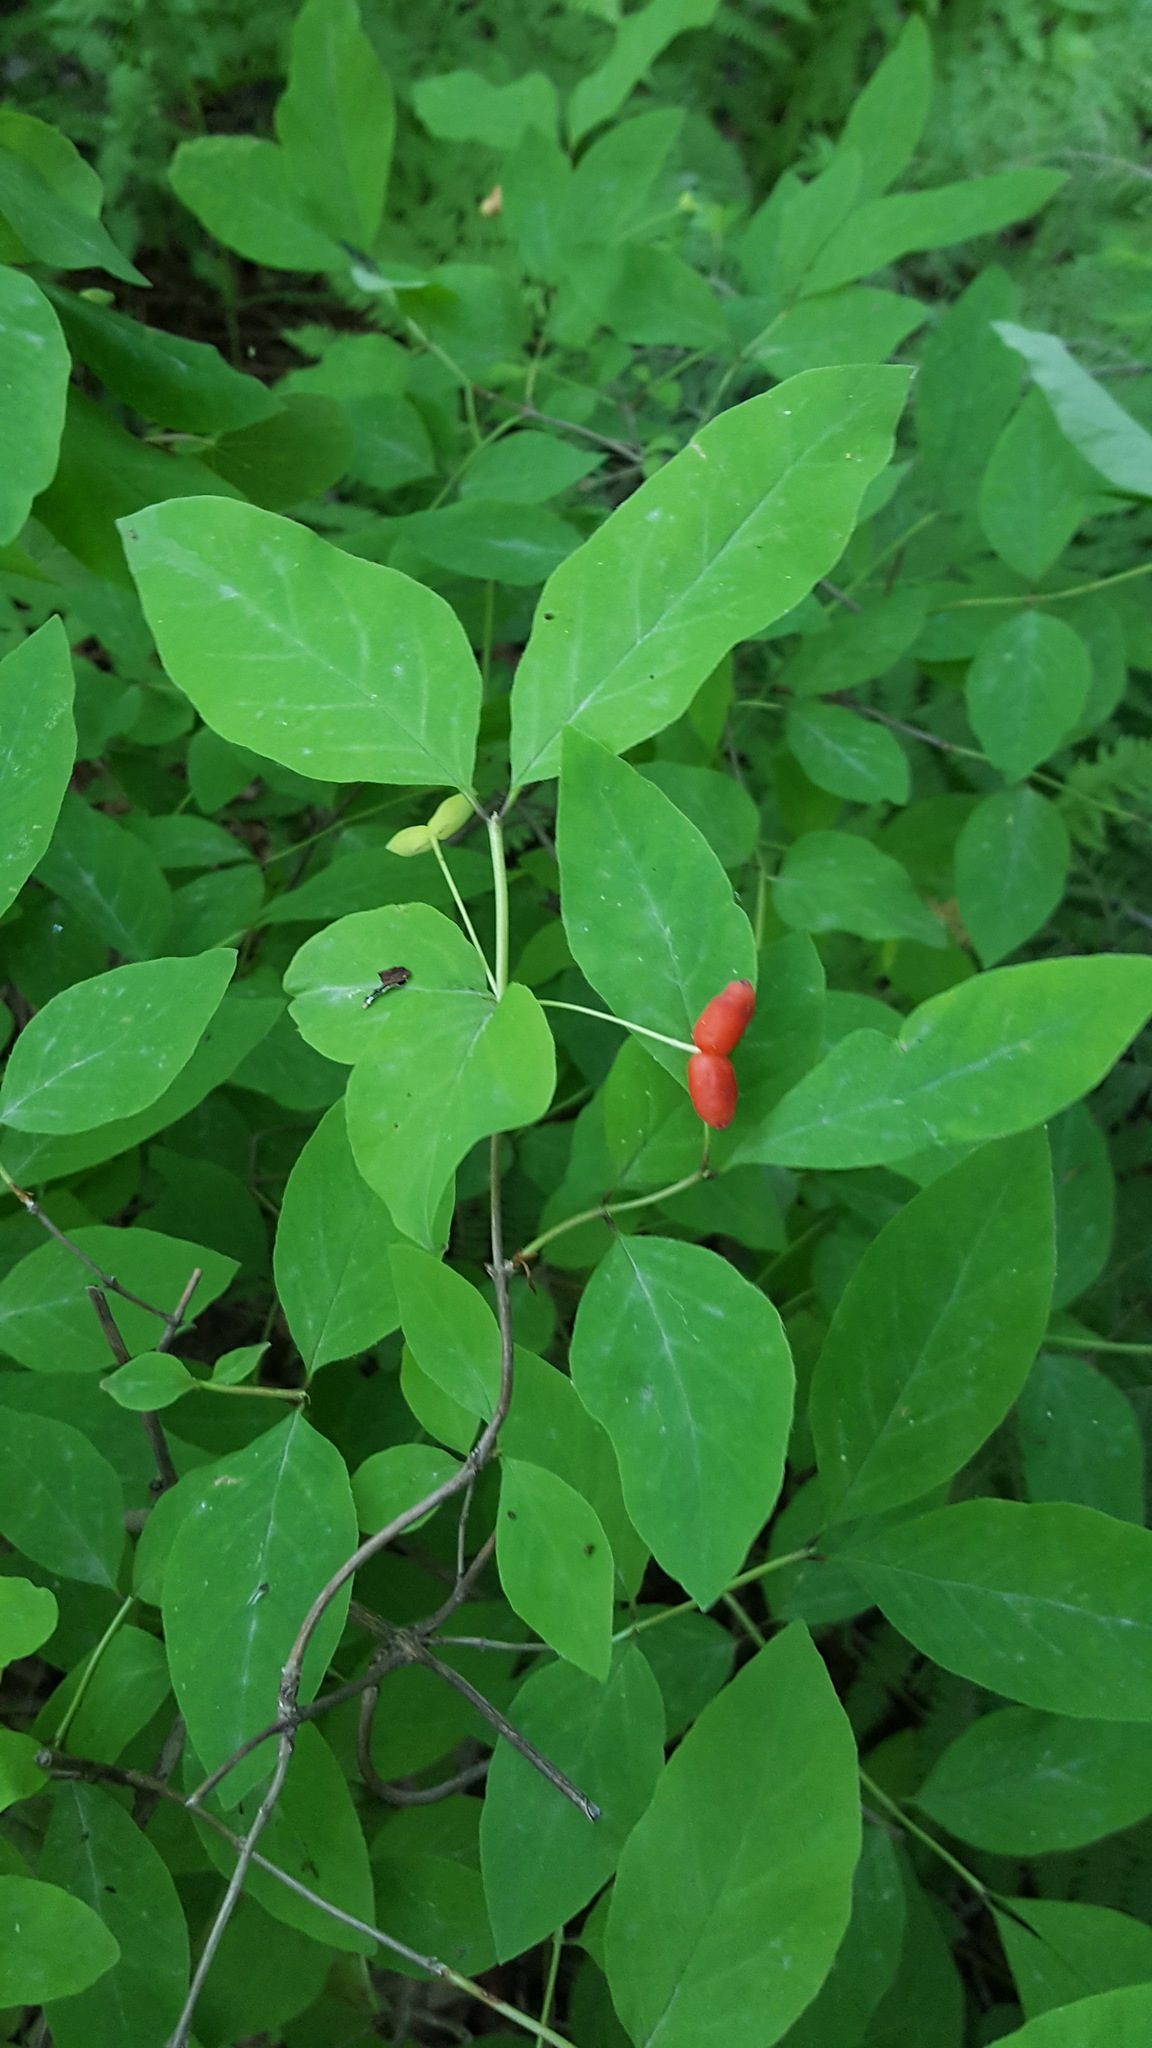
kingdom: Plantae
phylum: Tracheophyta
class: Magnoliopsida
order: Dipsacales
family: Caprifoliaceae
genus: Lonicera
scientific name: Lonicera canadensis
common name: American fly-honeysuckle
